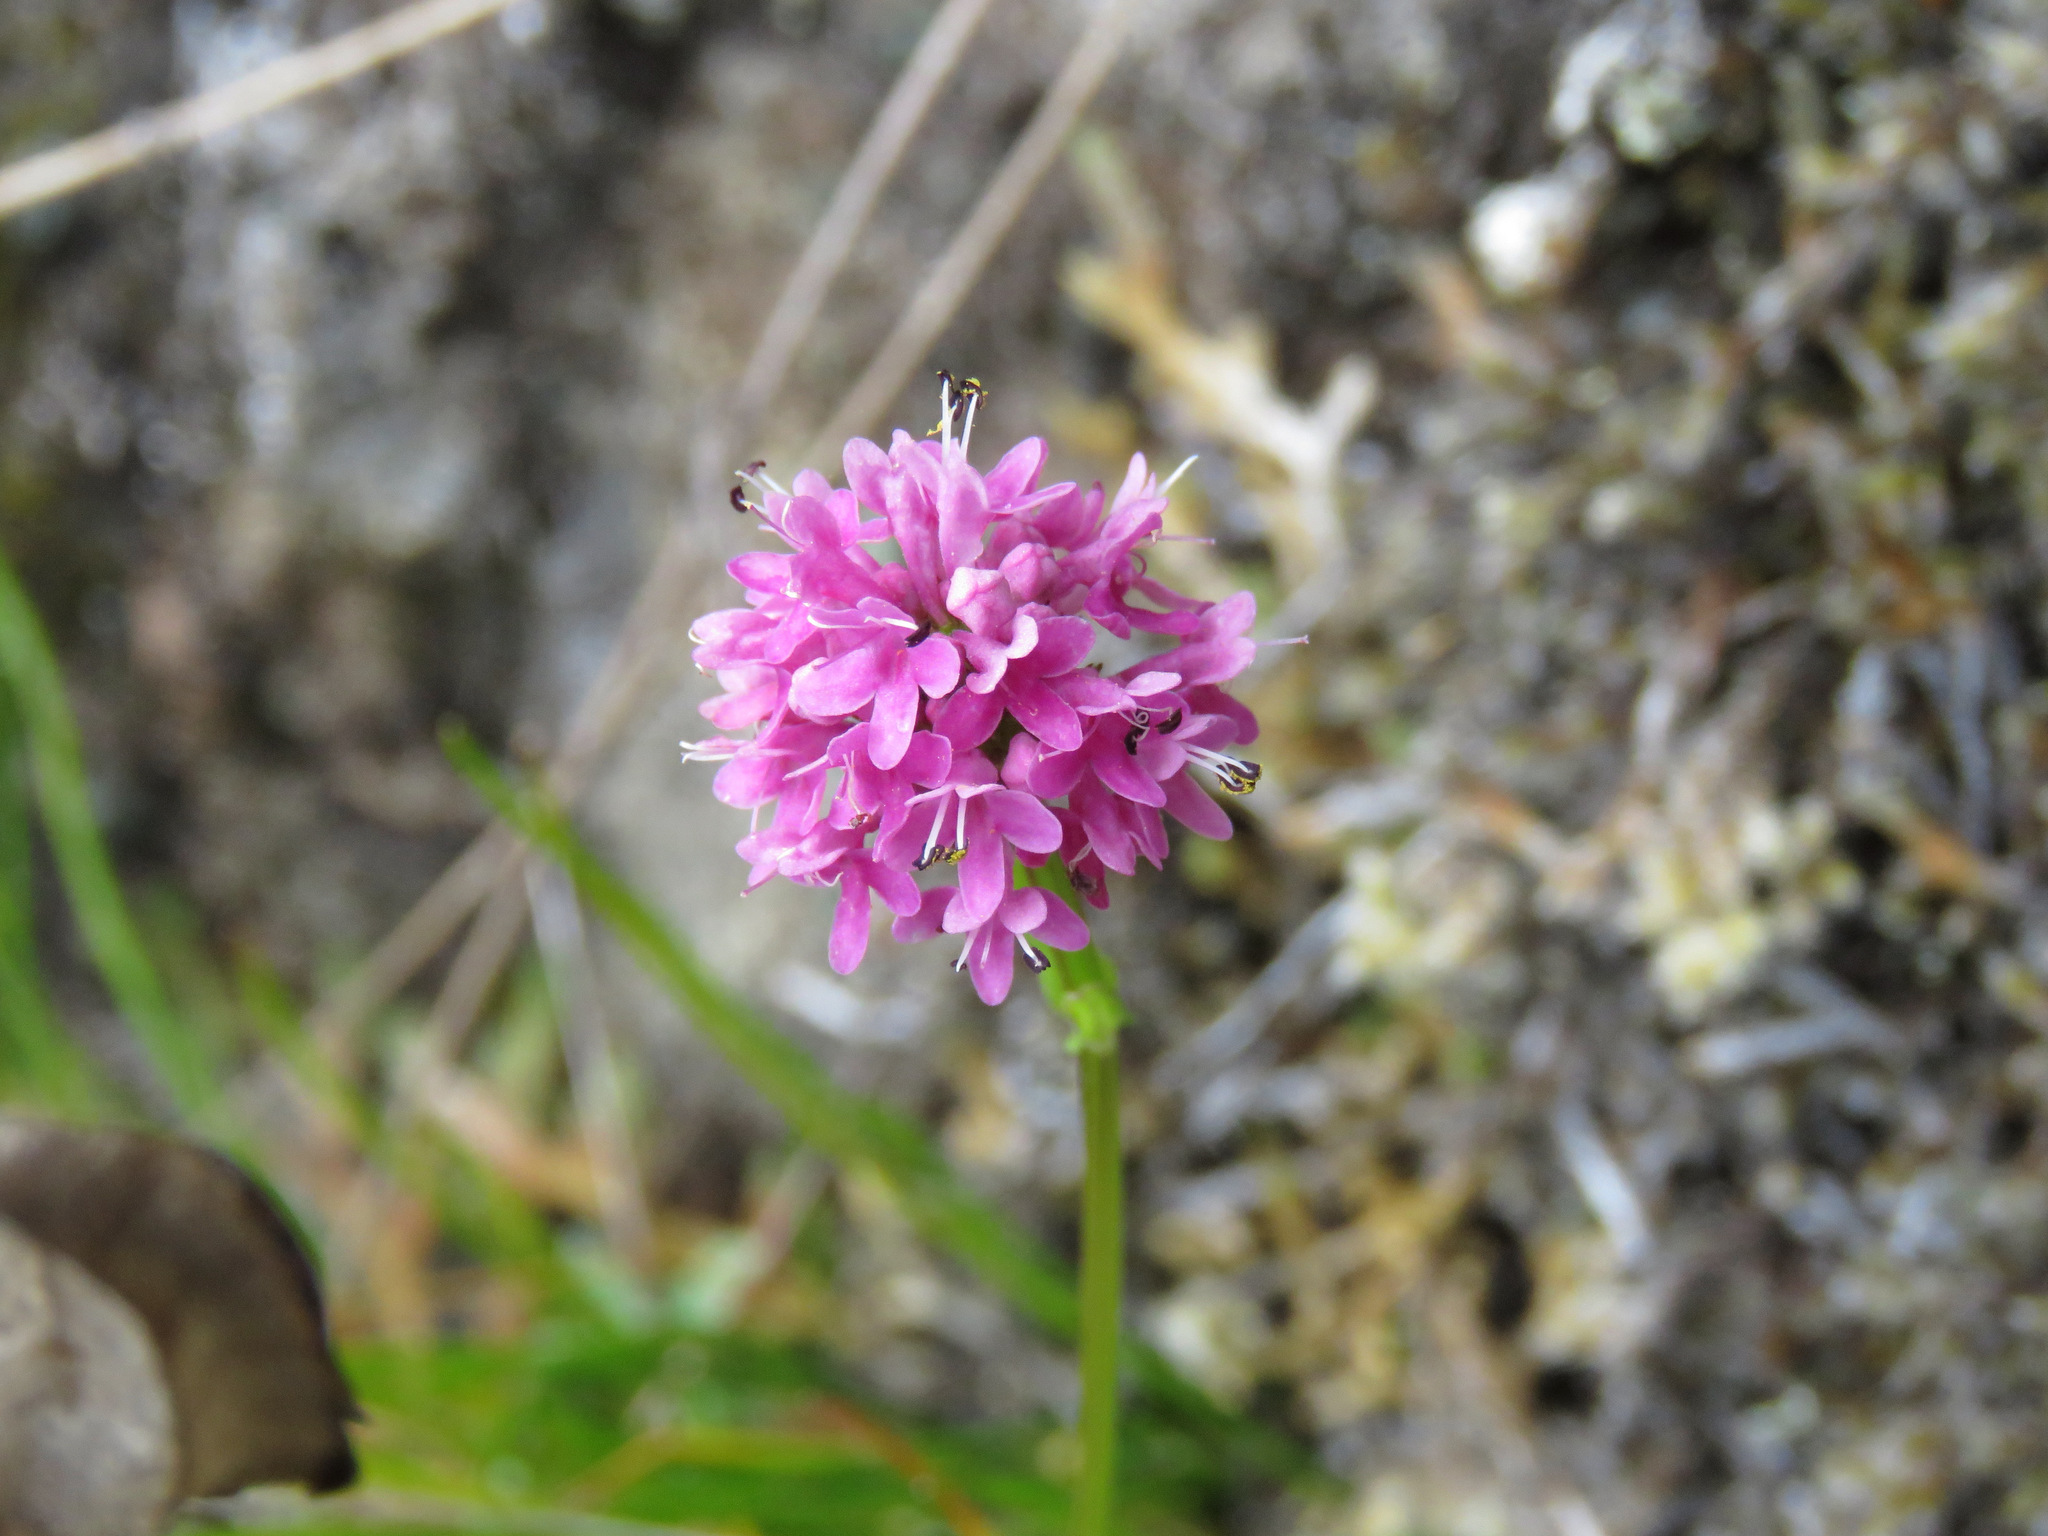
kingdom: Plantae
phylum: Tracheophyta
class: Magnoliopsida
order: Dipsacales
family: Caprifoliaceae
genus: Plectritis
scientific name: Plectritis congesta
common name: Pink plectritis
